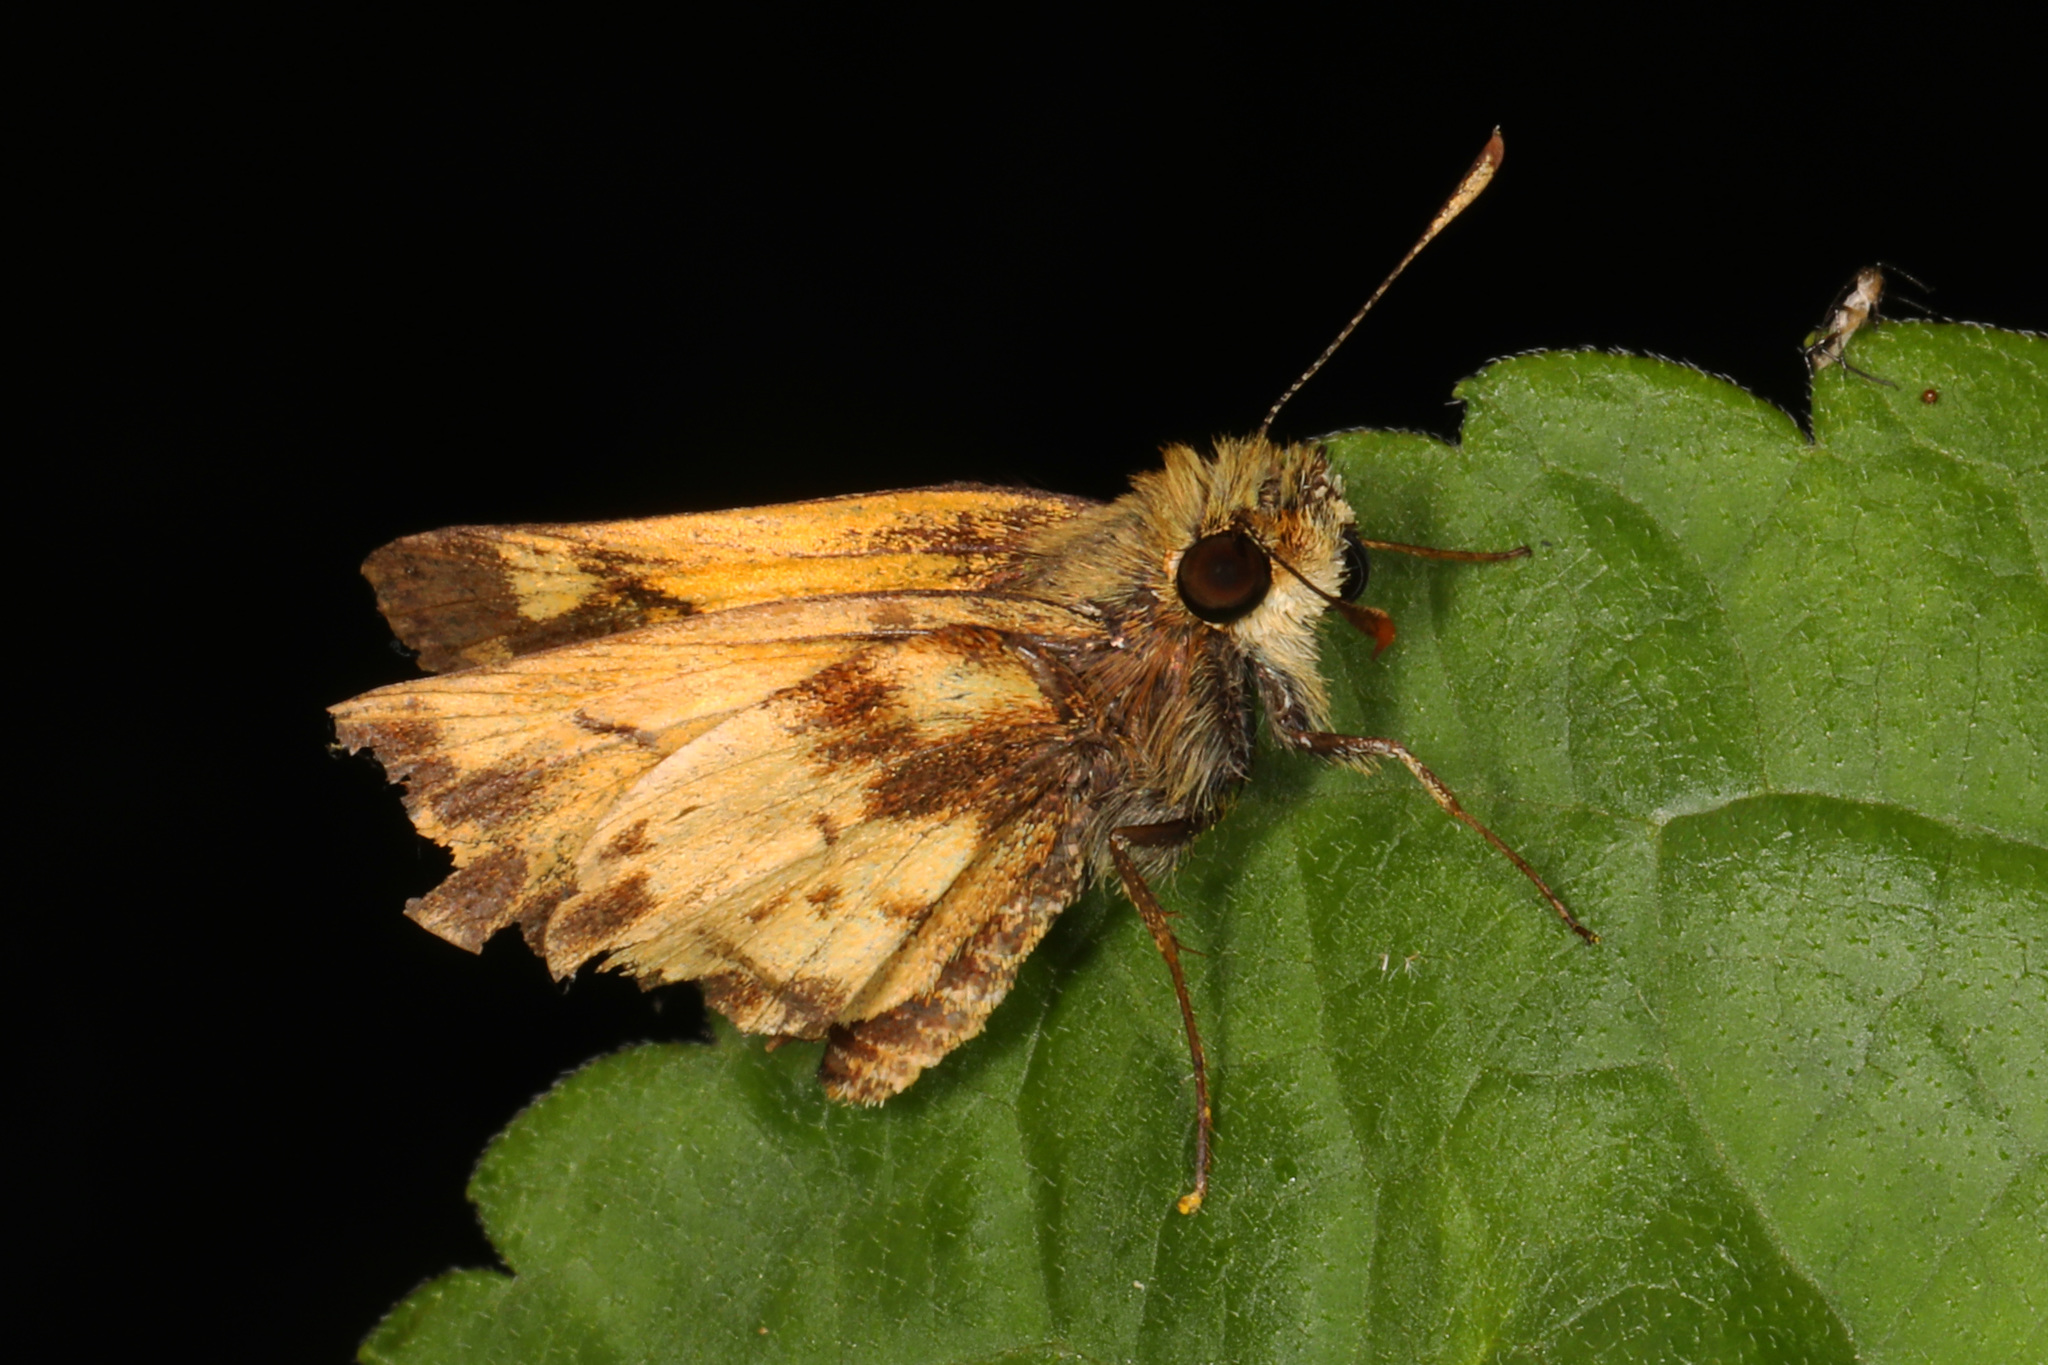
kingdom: Animalia
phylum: Arthropoda
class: Insecta
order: Lepidoptera
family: Hesperiidae
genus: Lon
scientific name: Lon zabulon
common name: Zabulon skipper
